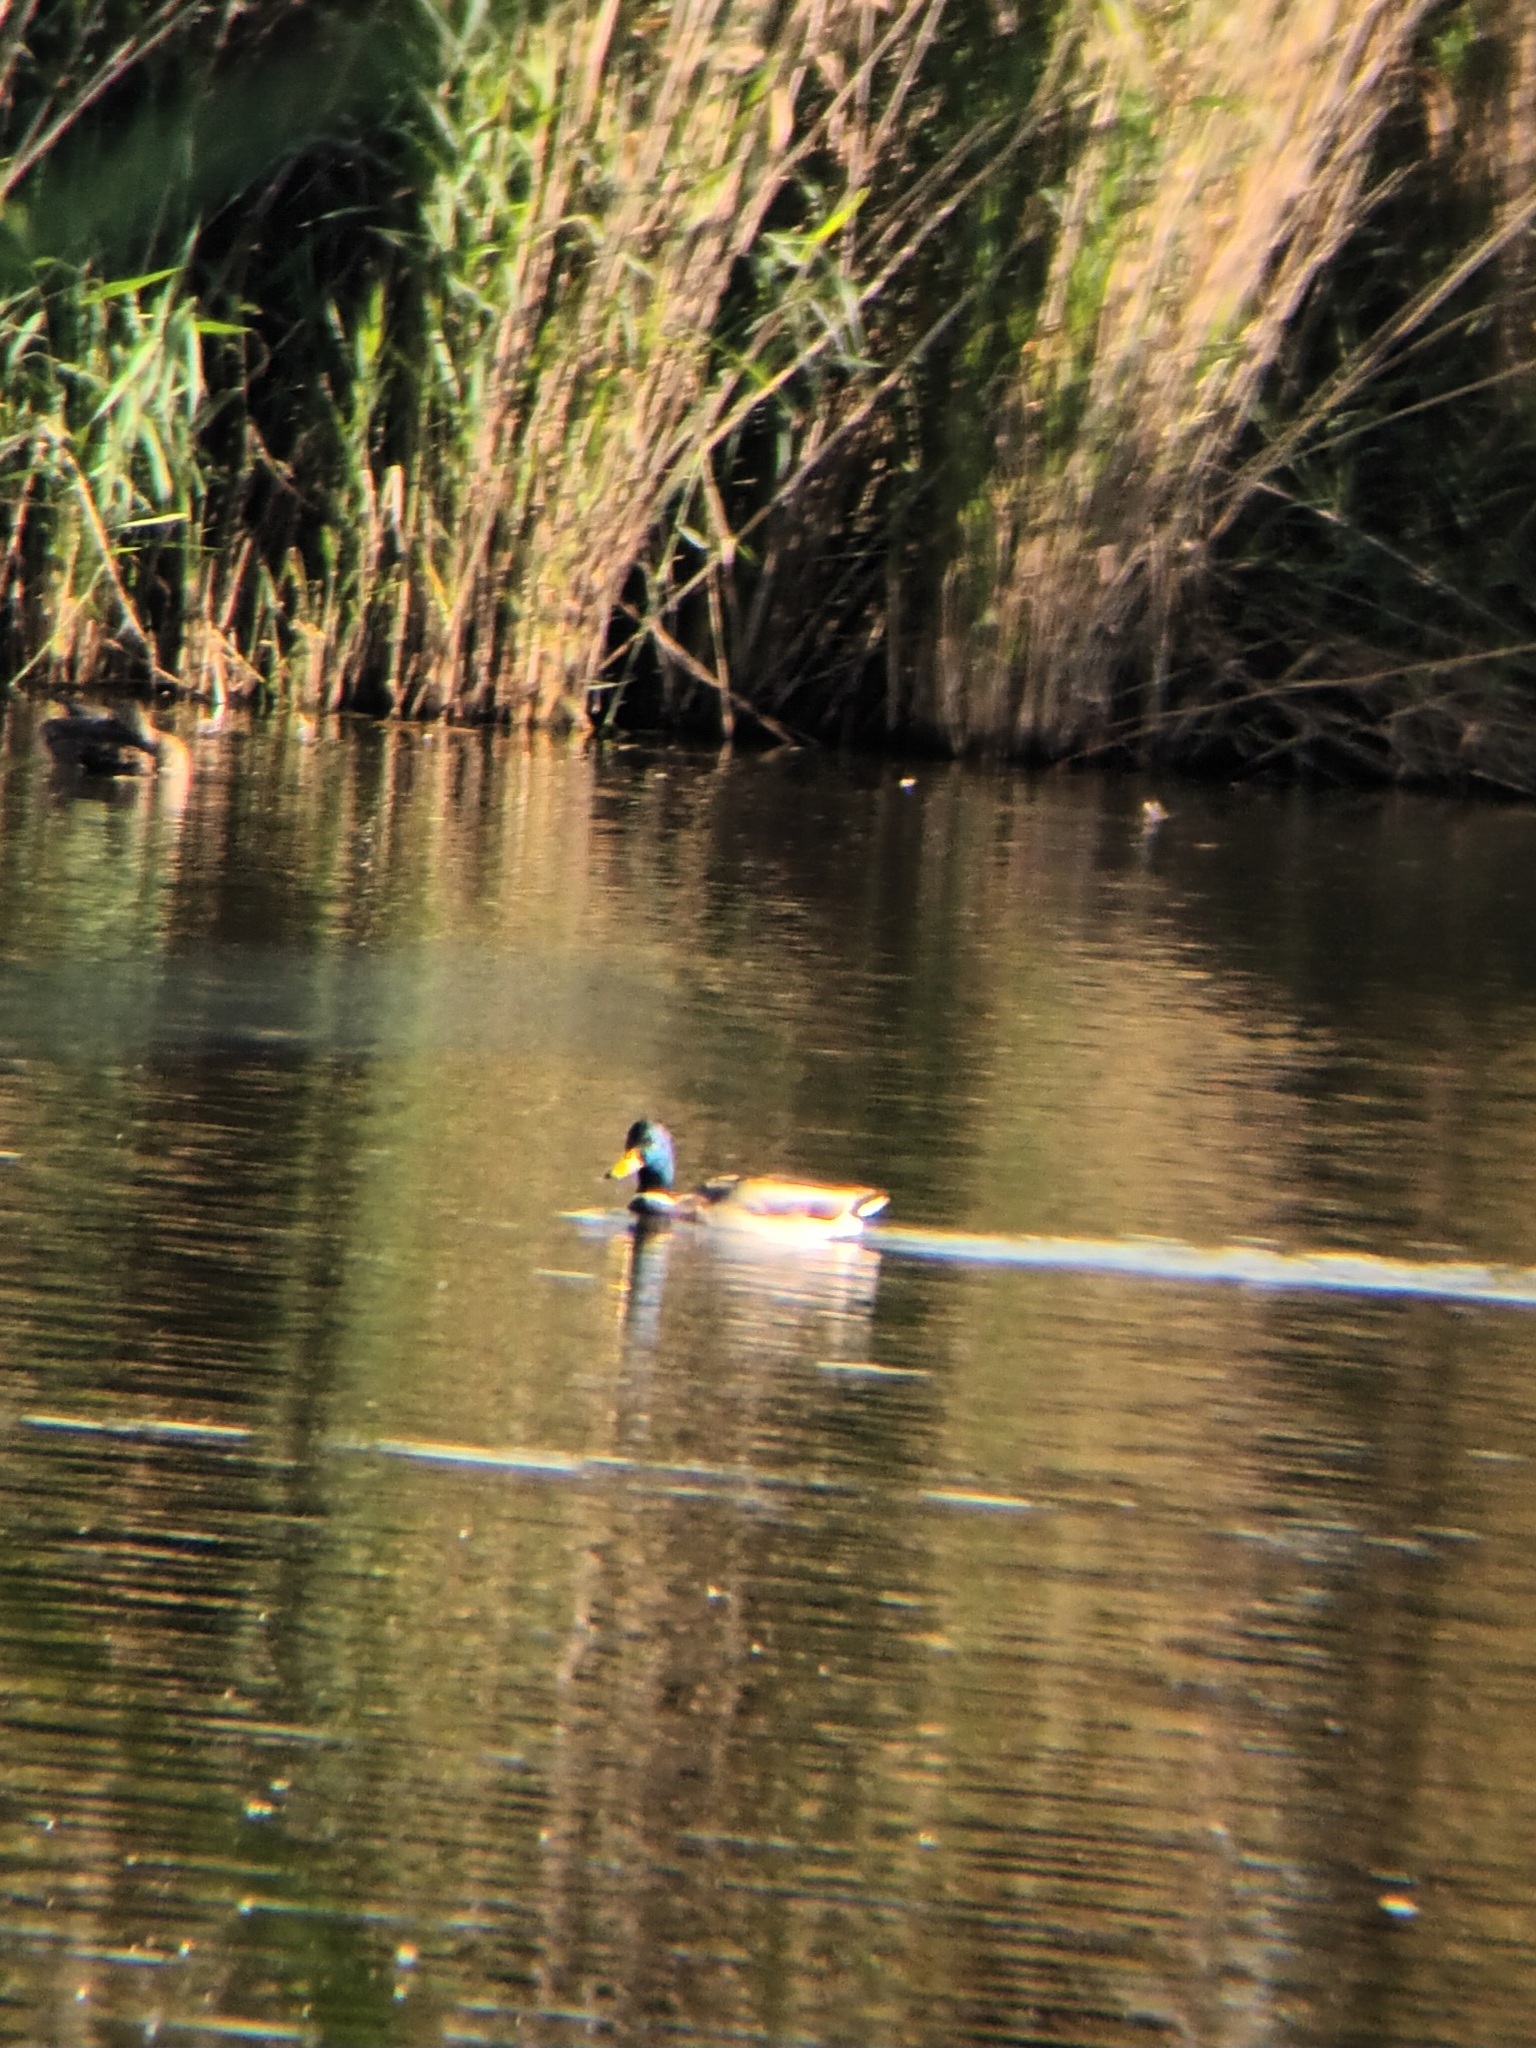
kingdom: Animalia
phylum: Chordata
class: Aves
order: Anseriformes
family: Anatidae
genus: Anas
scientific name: Anas platyrhynchos
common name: Mallard
